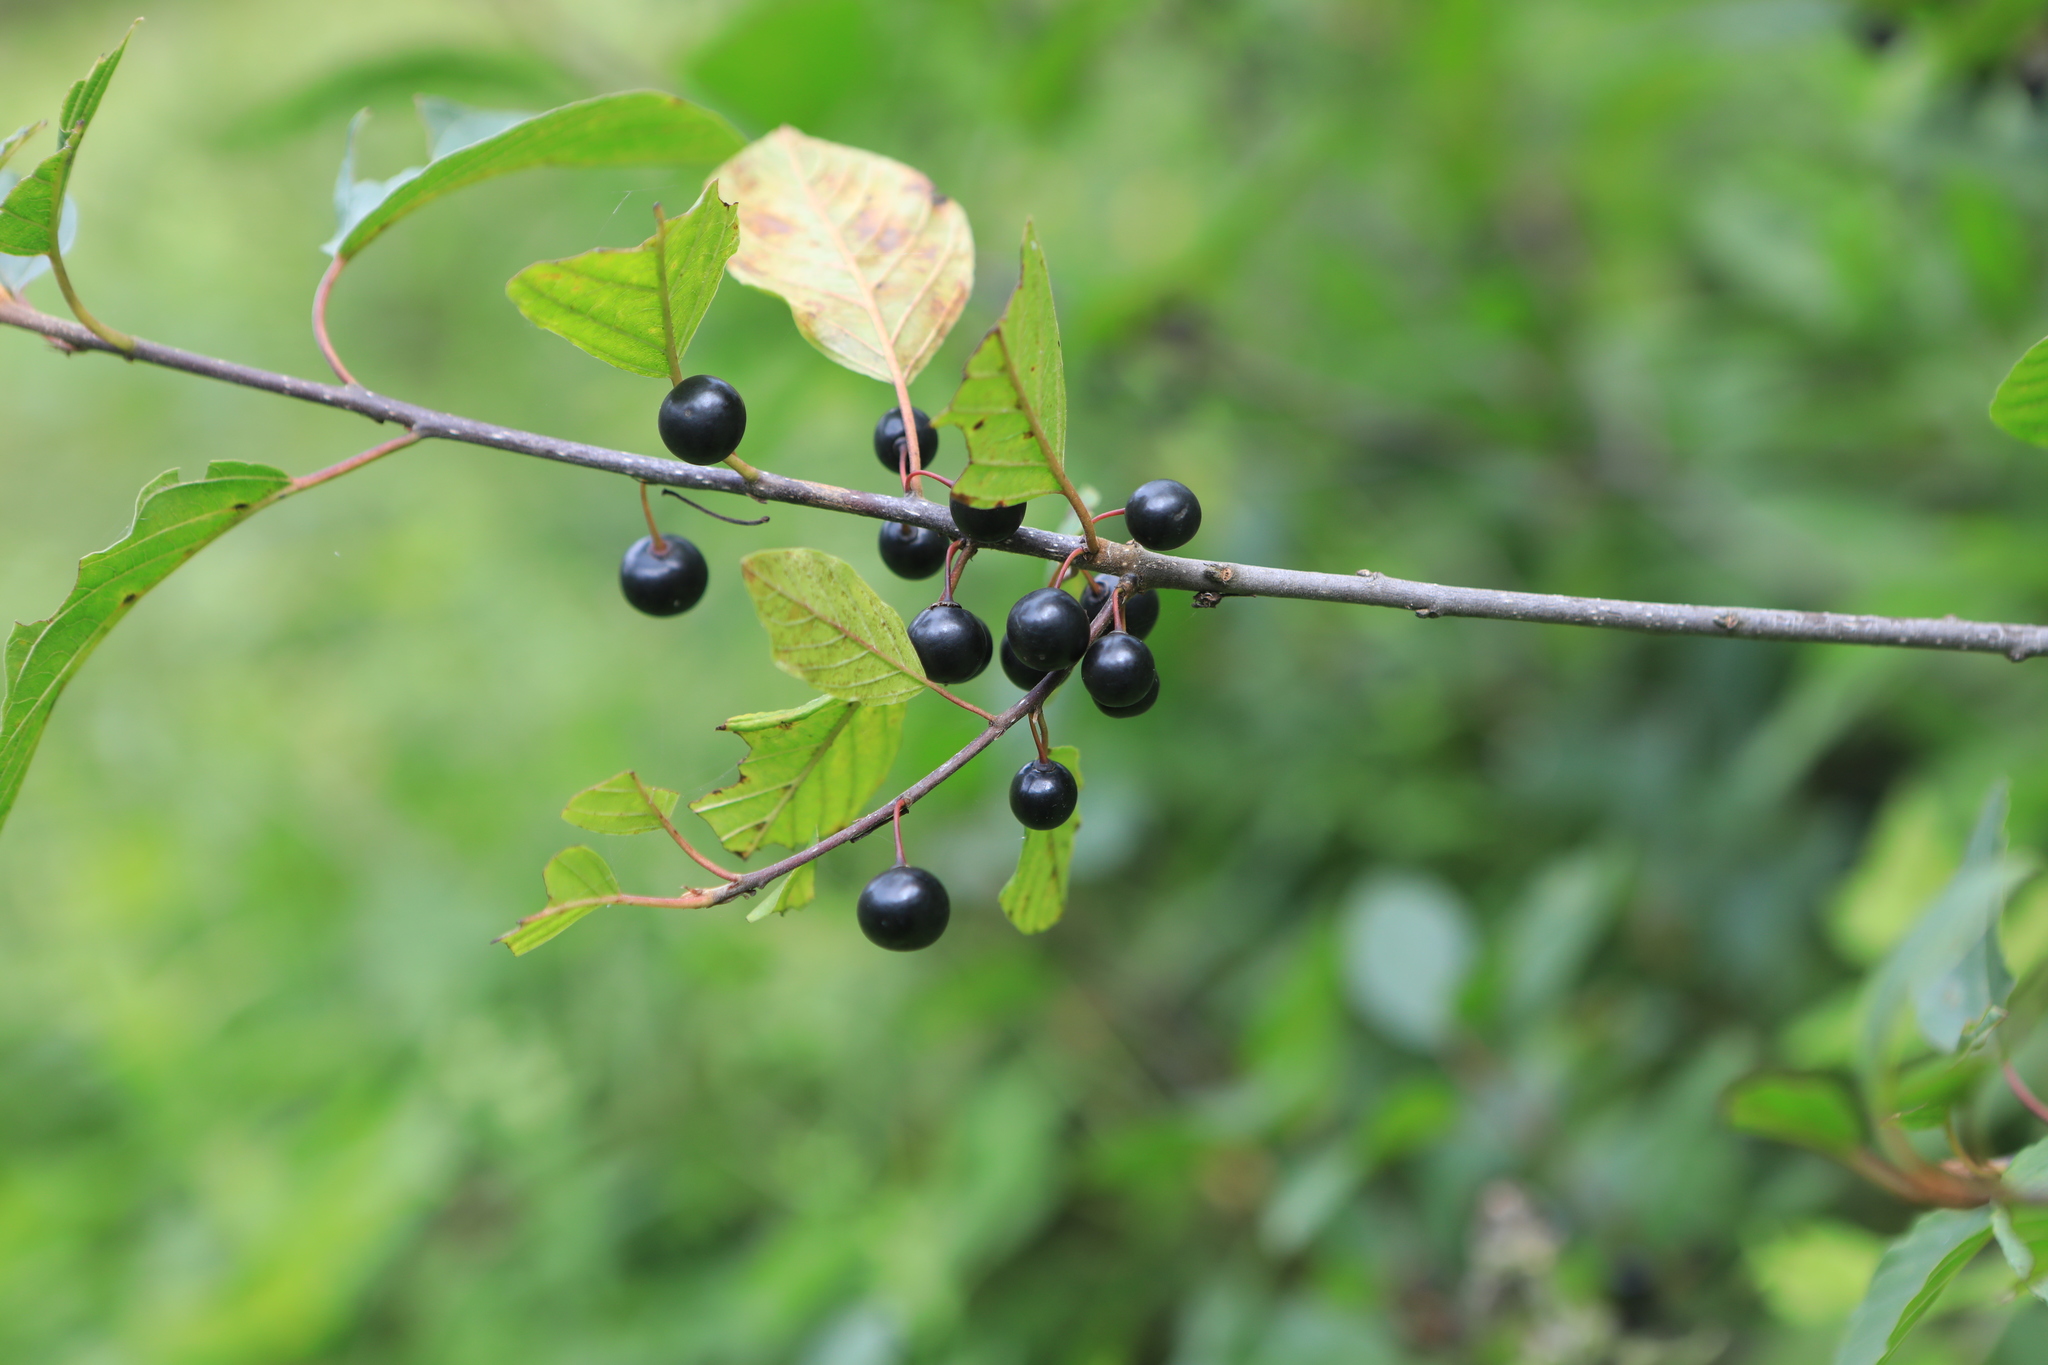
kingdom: Plantae
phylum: Tracheophyta
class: Magnoliopsida
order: Rosales
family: Rhamnaceae
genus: Frangula
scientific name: Frangula alnus
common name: Alder buckthorn
